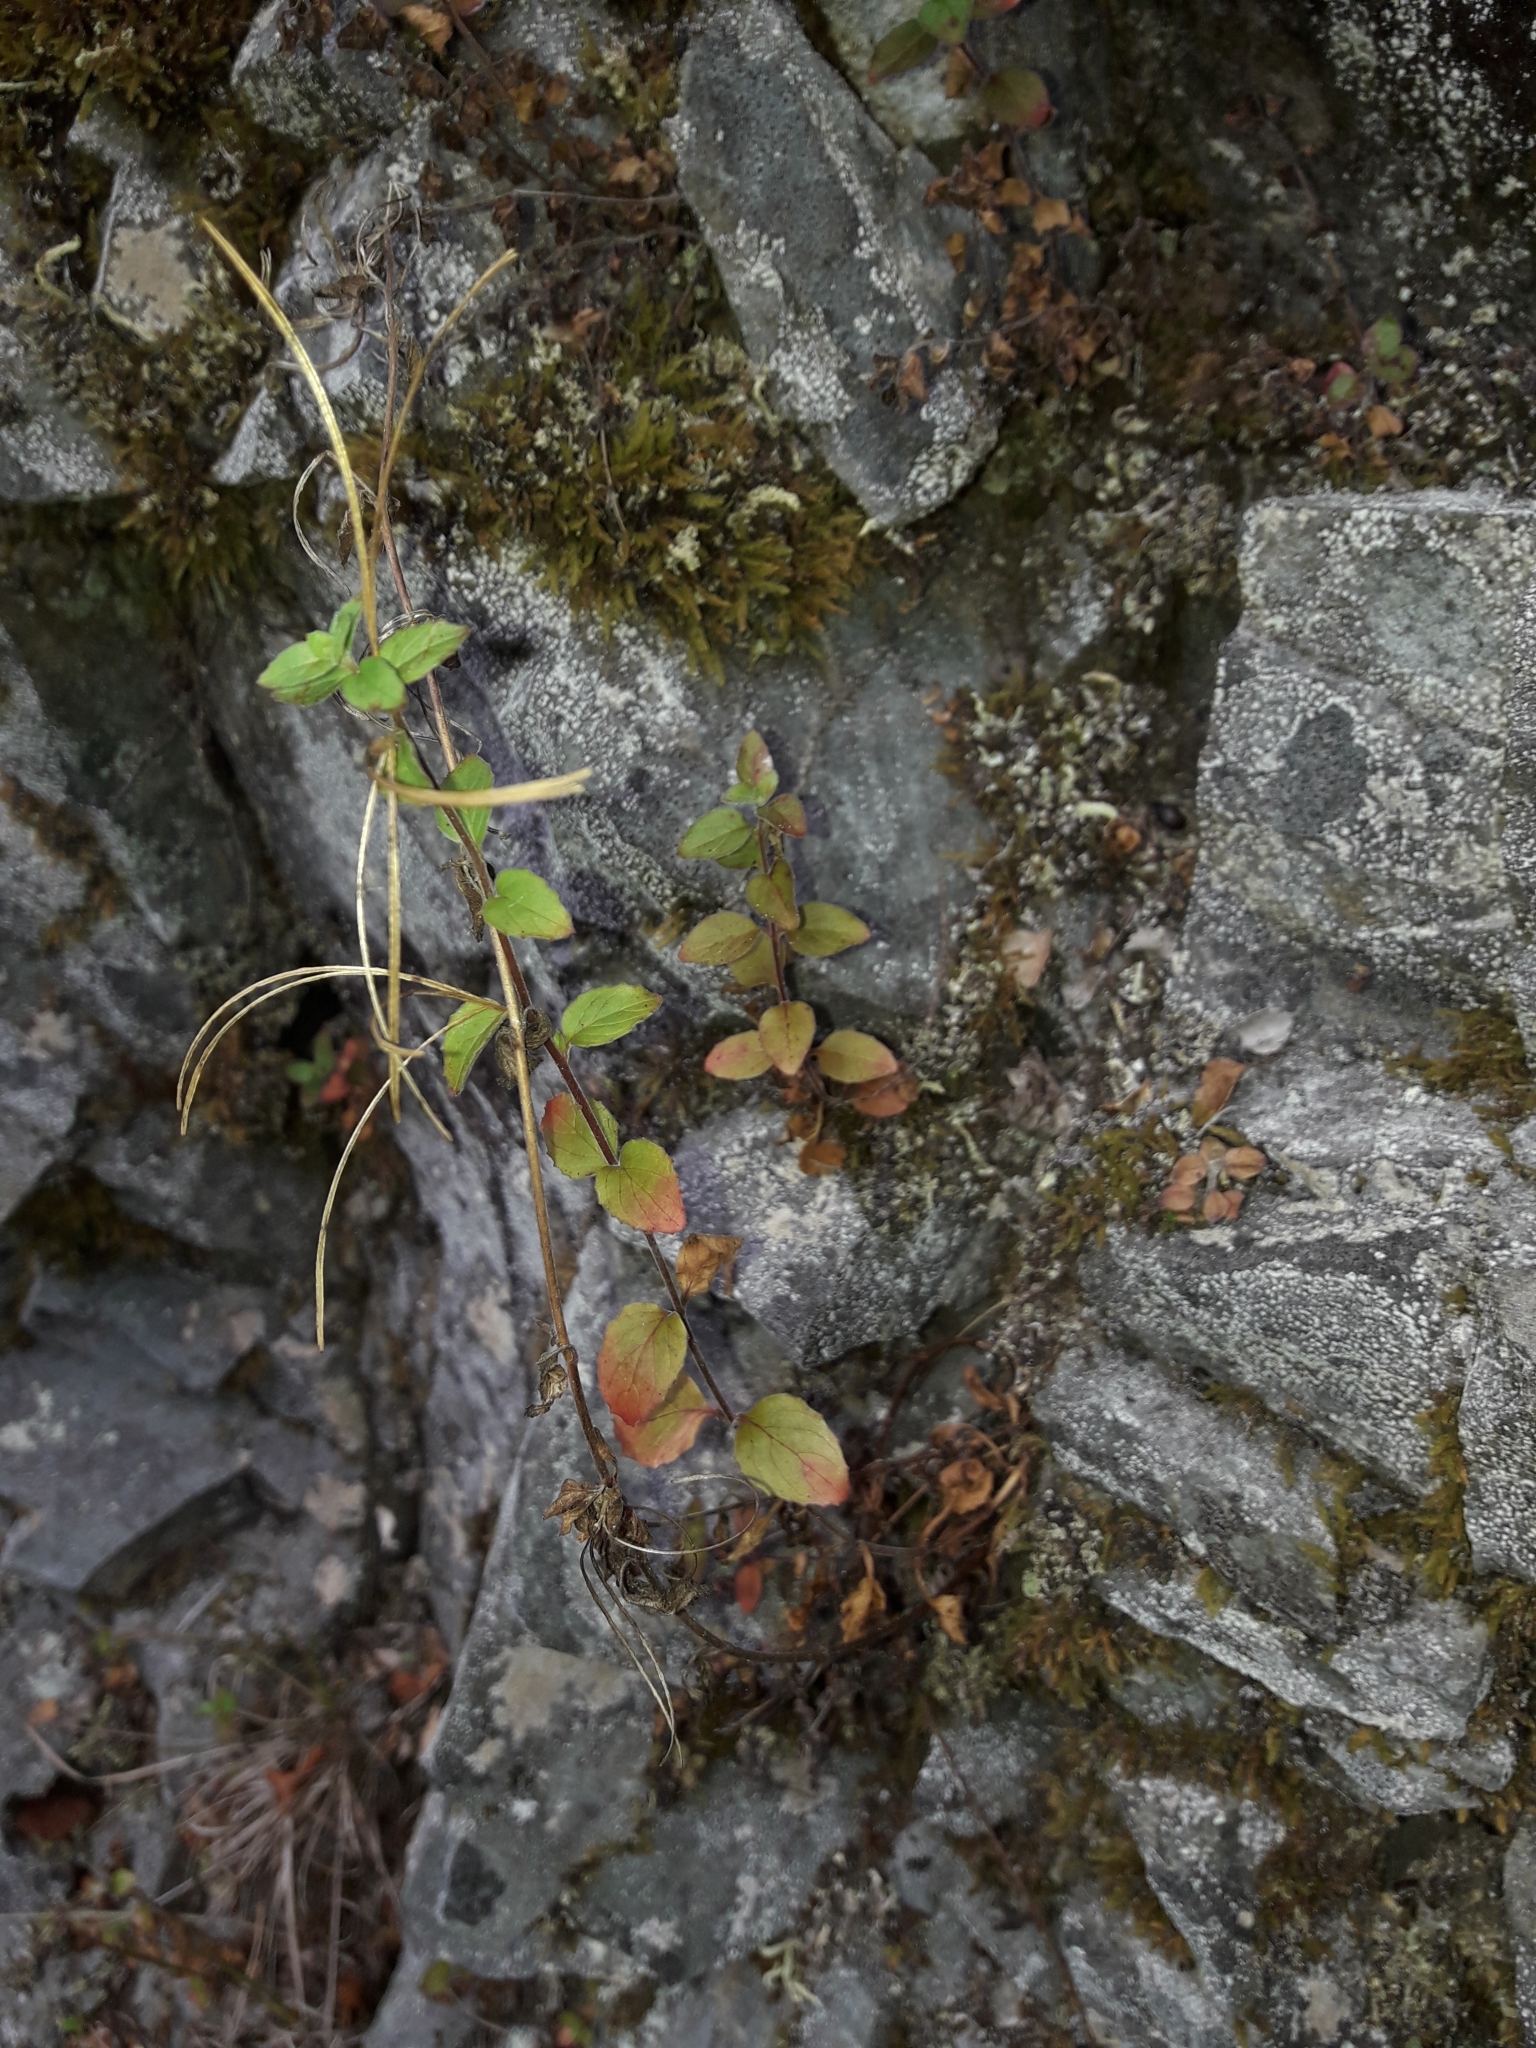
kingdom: Plantae
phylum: Tracheophyta
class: Magnoliopsida
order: Myrtales
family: Onagraceae
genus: Epilobium
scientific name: Epilobium pubens
